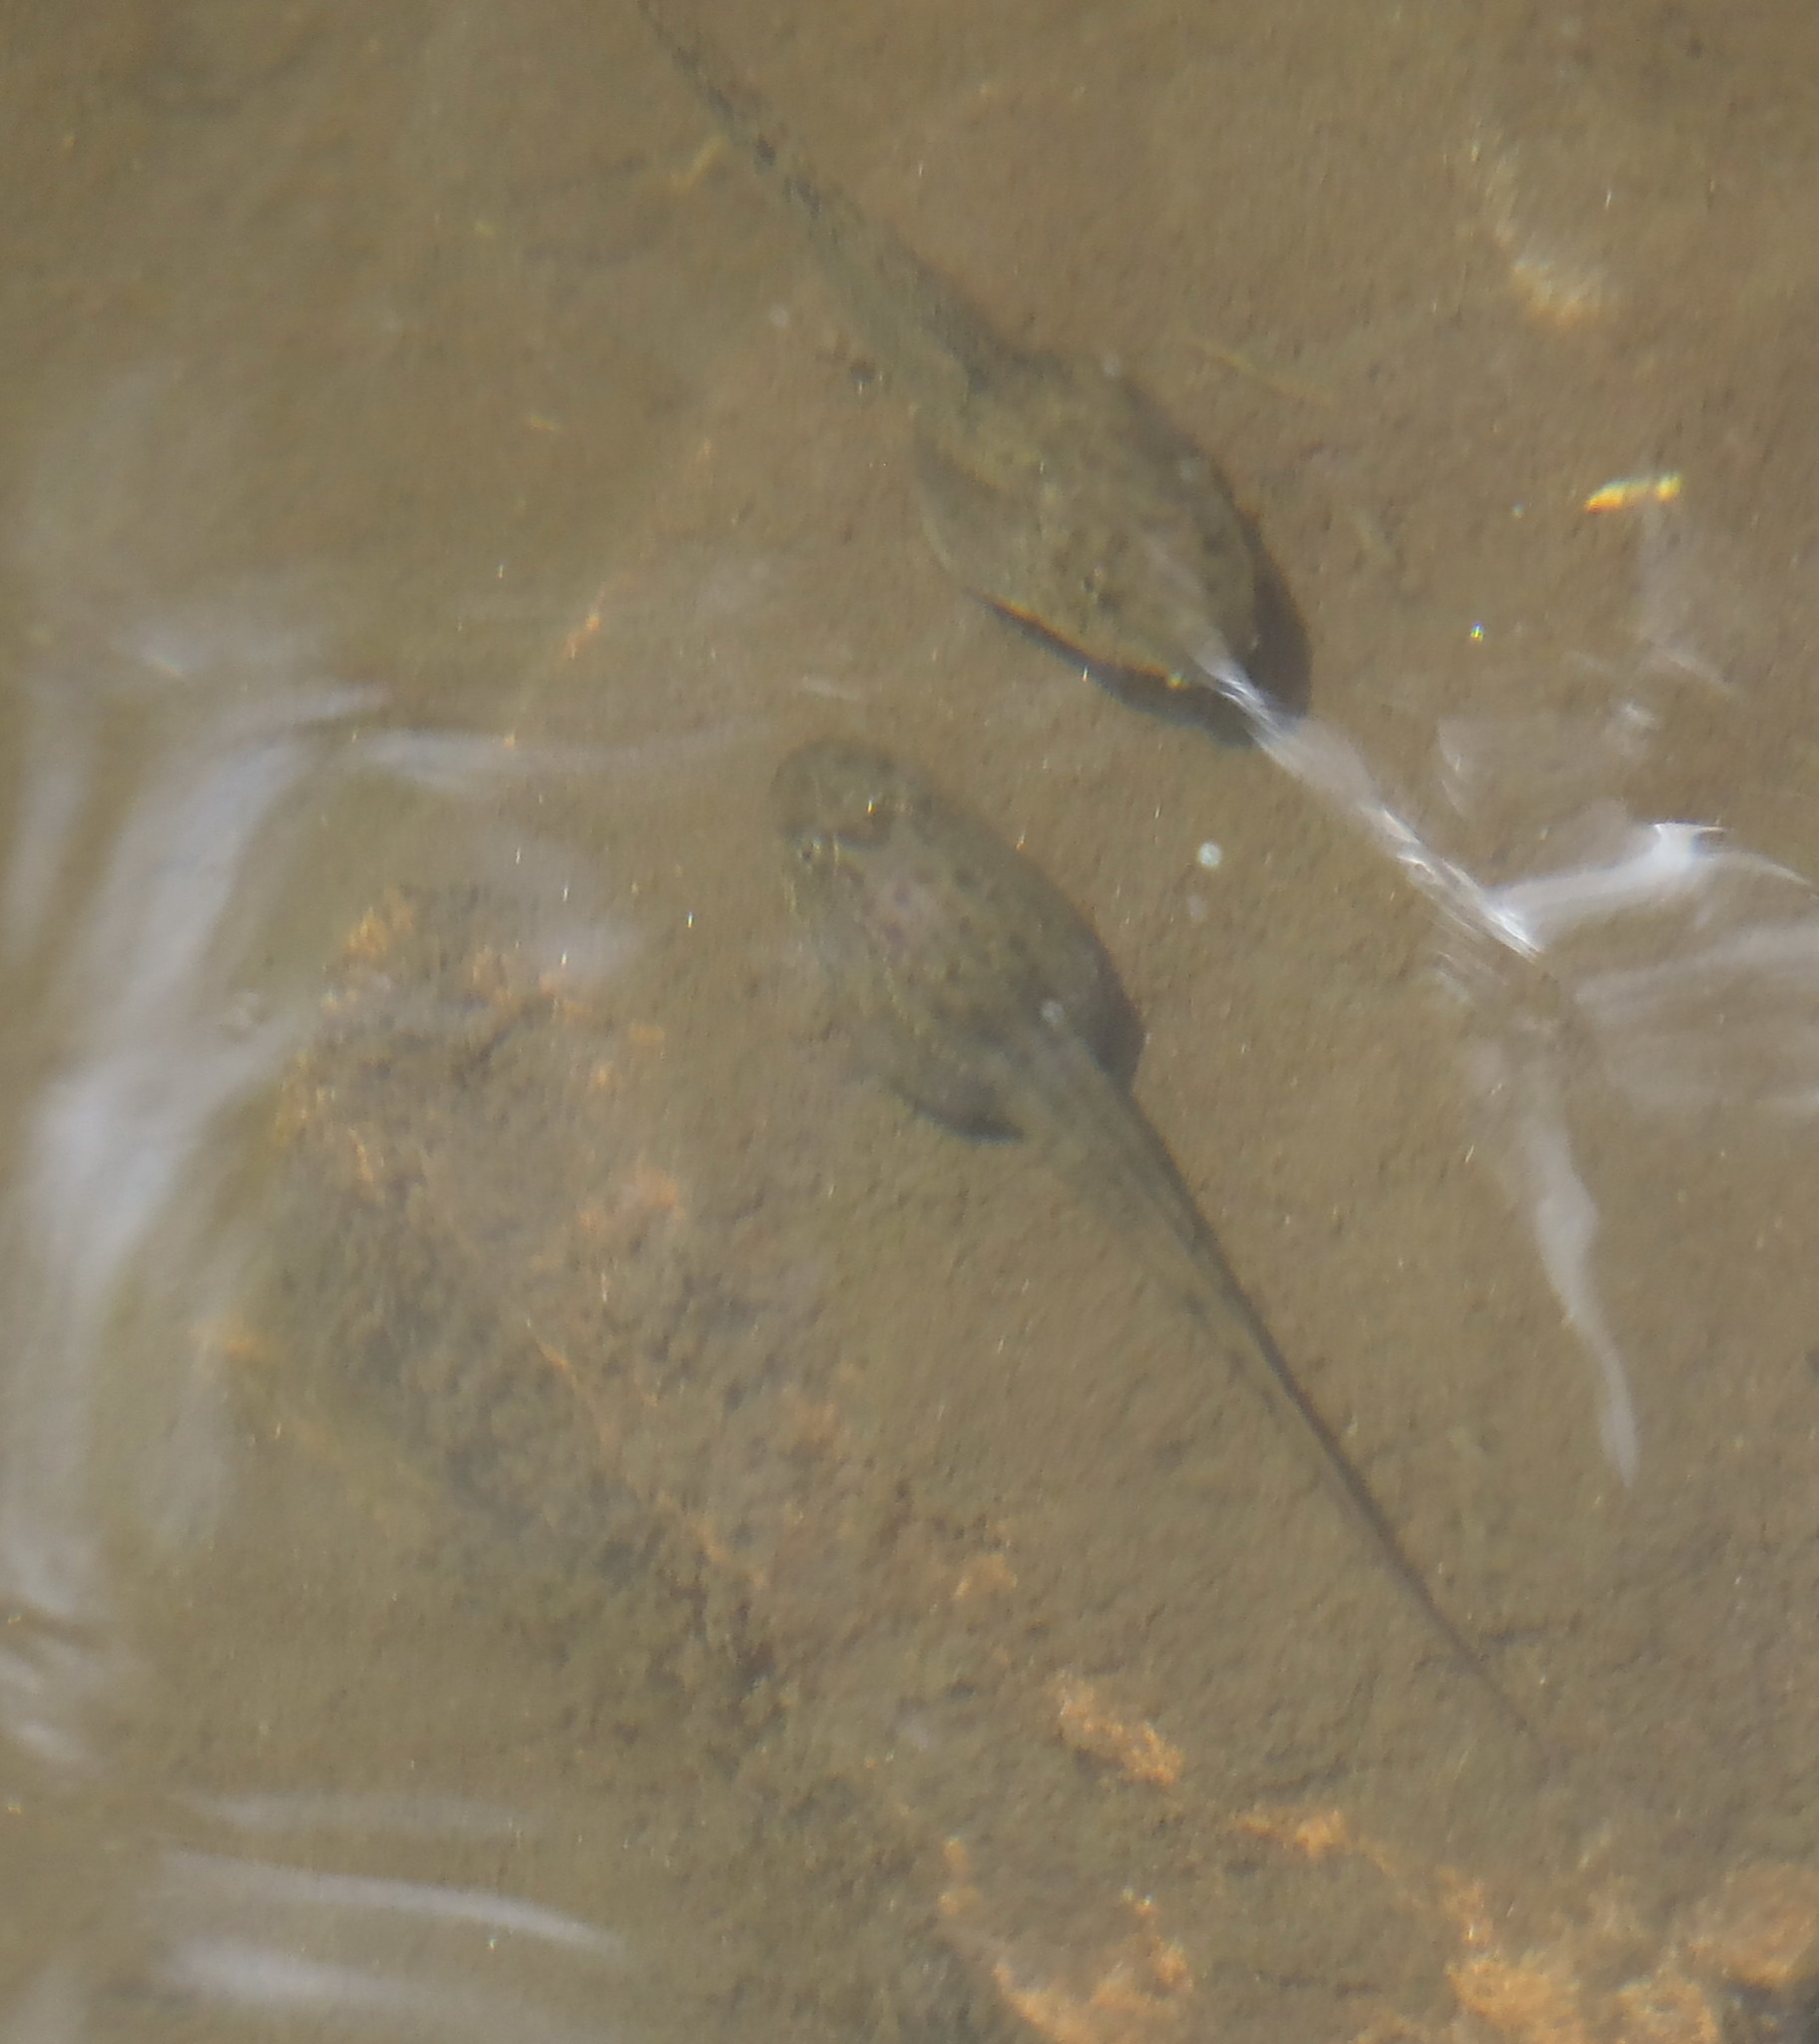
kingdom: Animalia
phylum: Chordata
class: Amphibia
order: Anura
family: Pyxicephalidae
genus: Amietia
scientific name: Amietia fuscigula
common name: Cape rana
